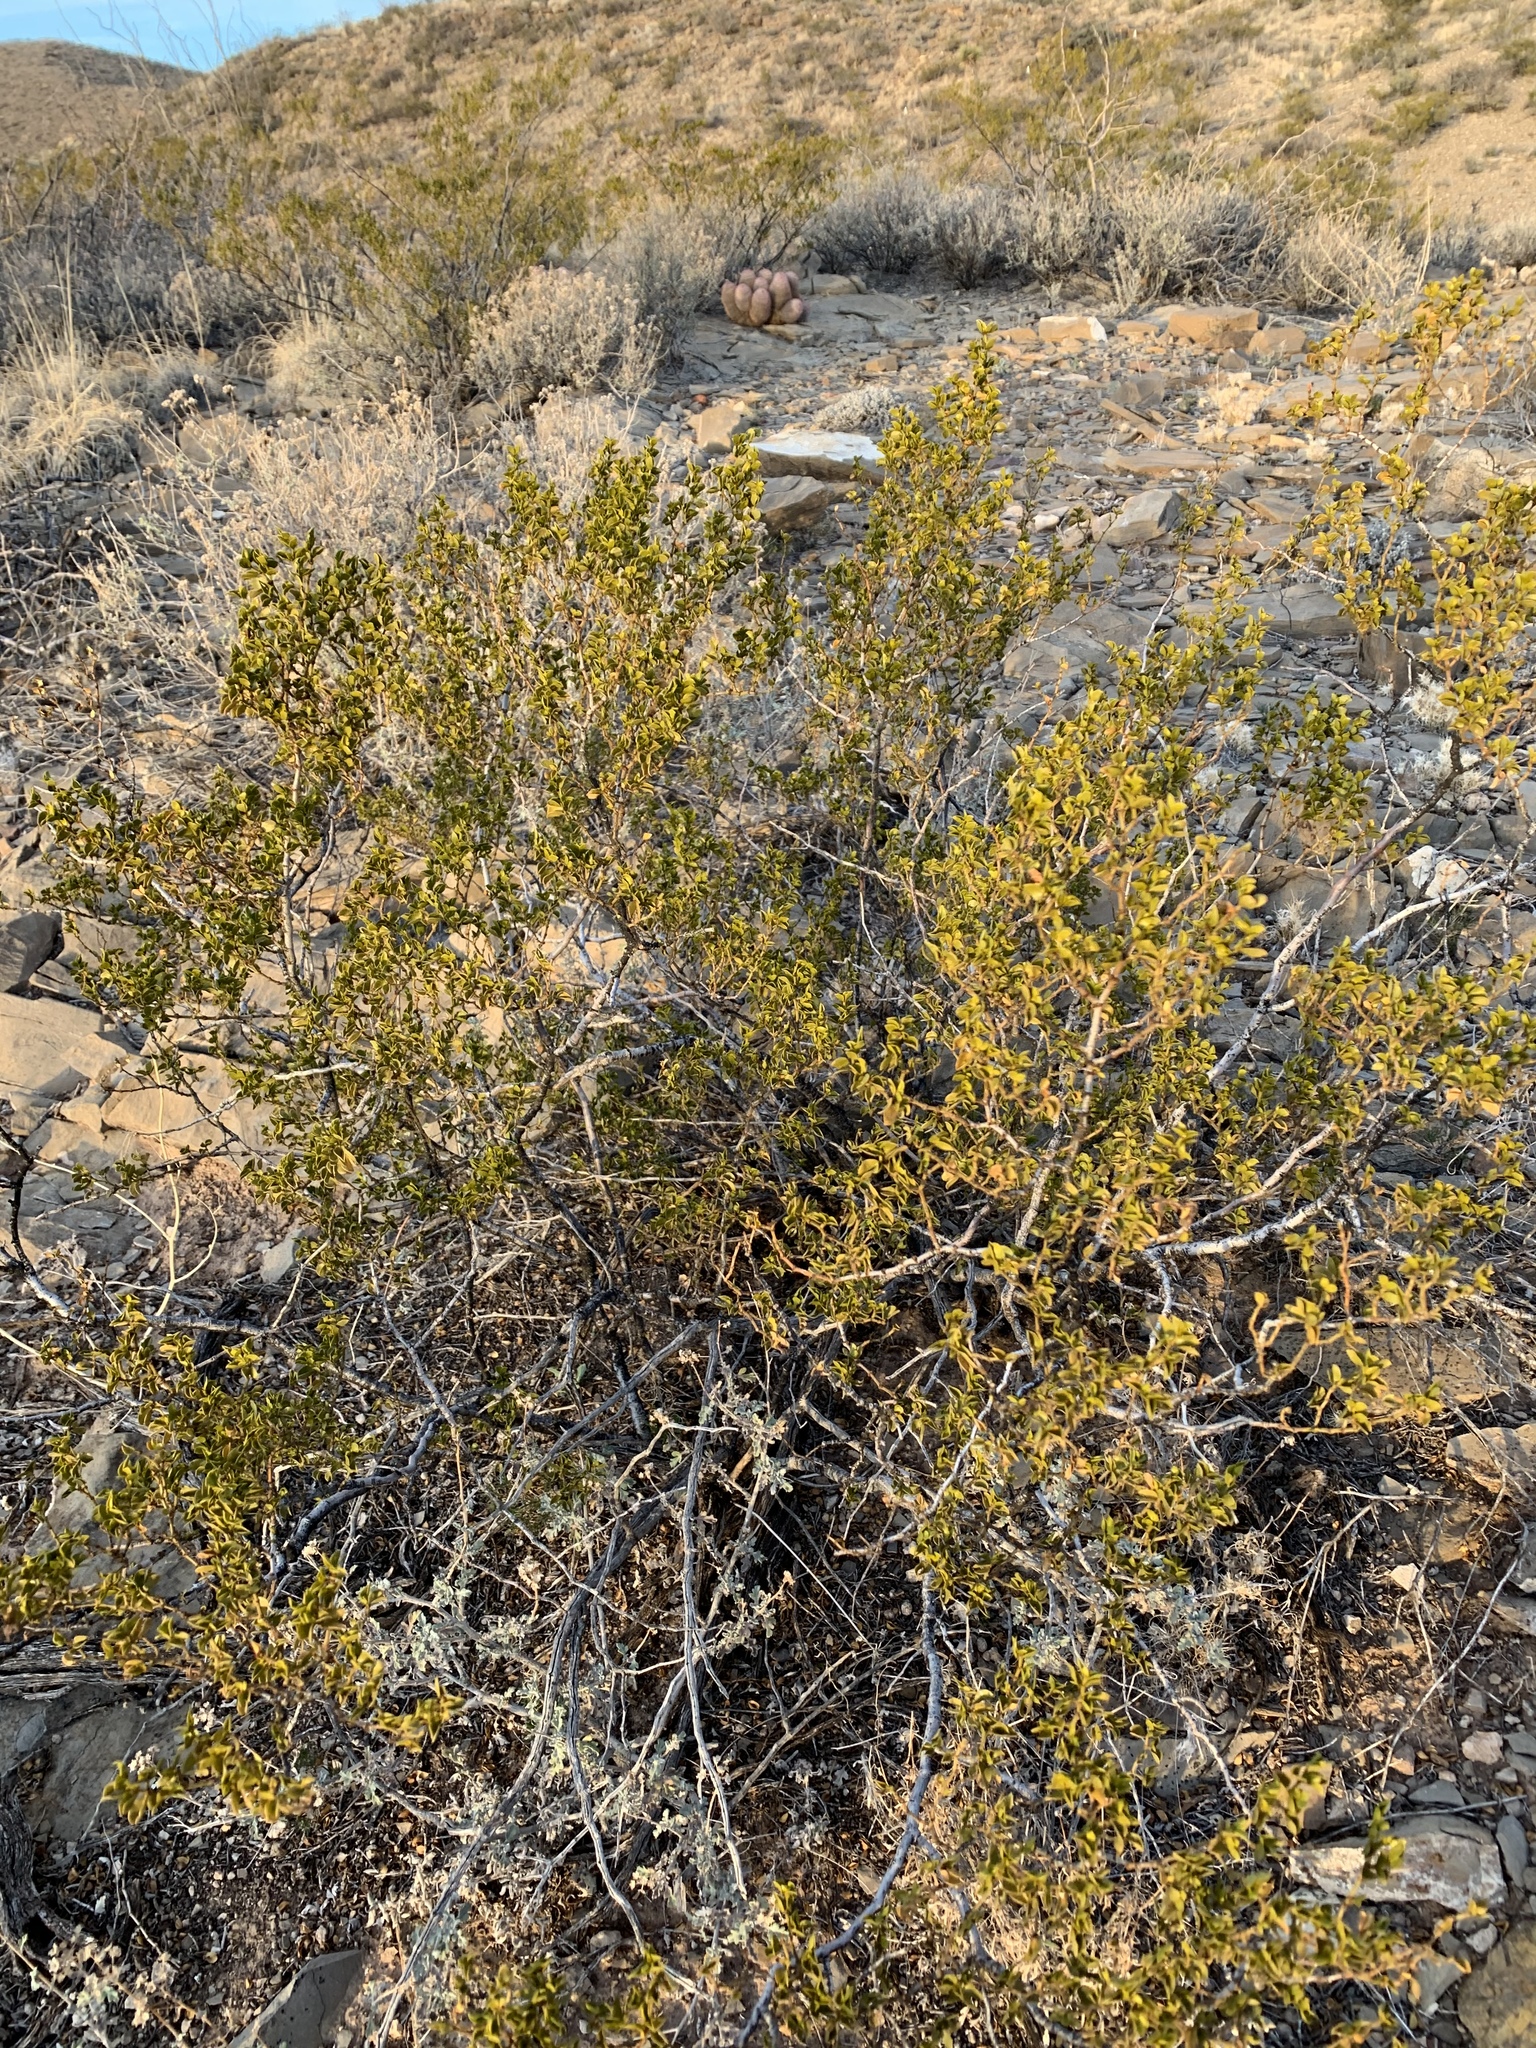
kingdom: Plantae
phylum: Tracheophyta
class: Magnoliopsida
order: Zygophyllales
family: Zygophyllaceae
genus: Larrea
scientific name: Larrea tridentata
